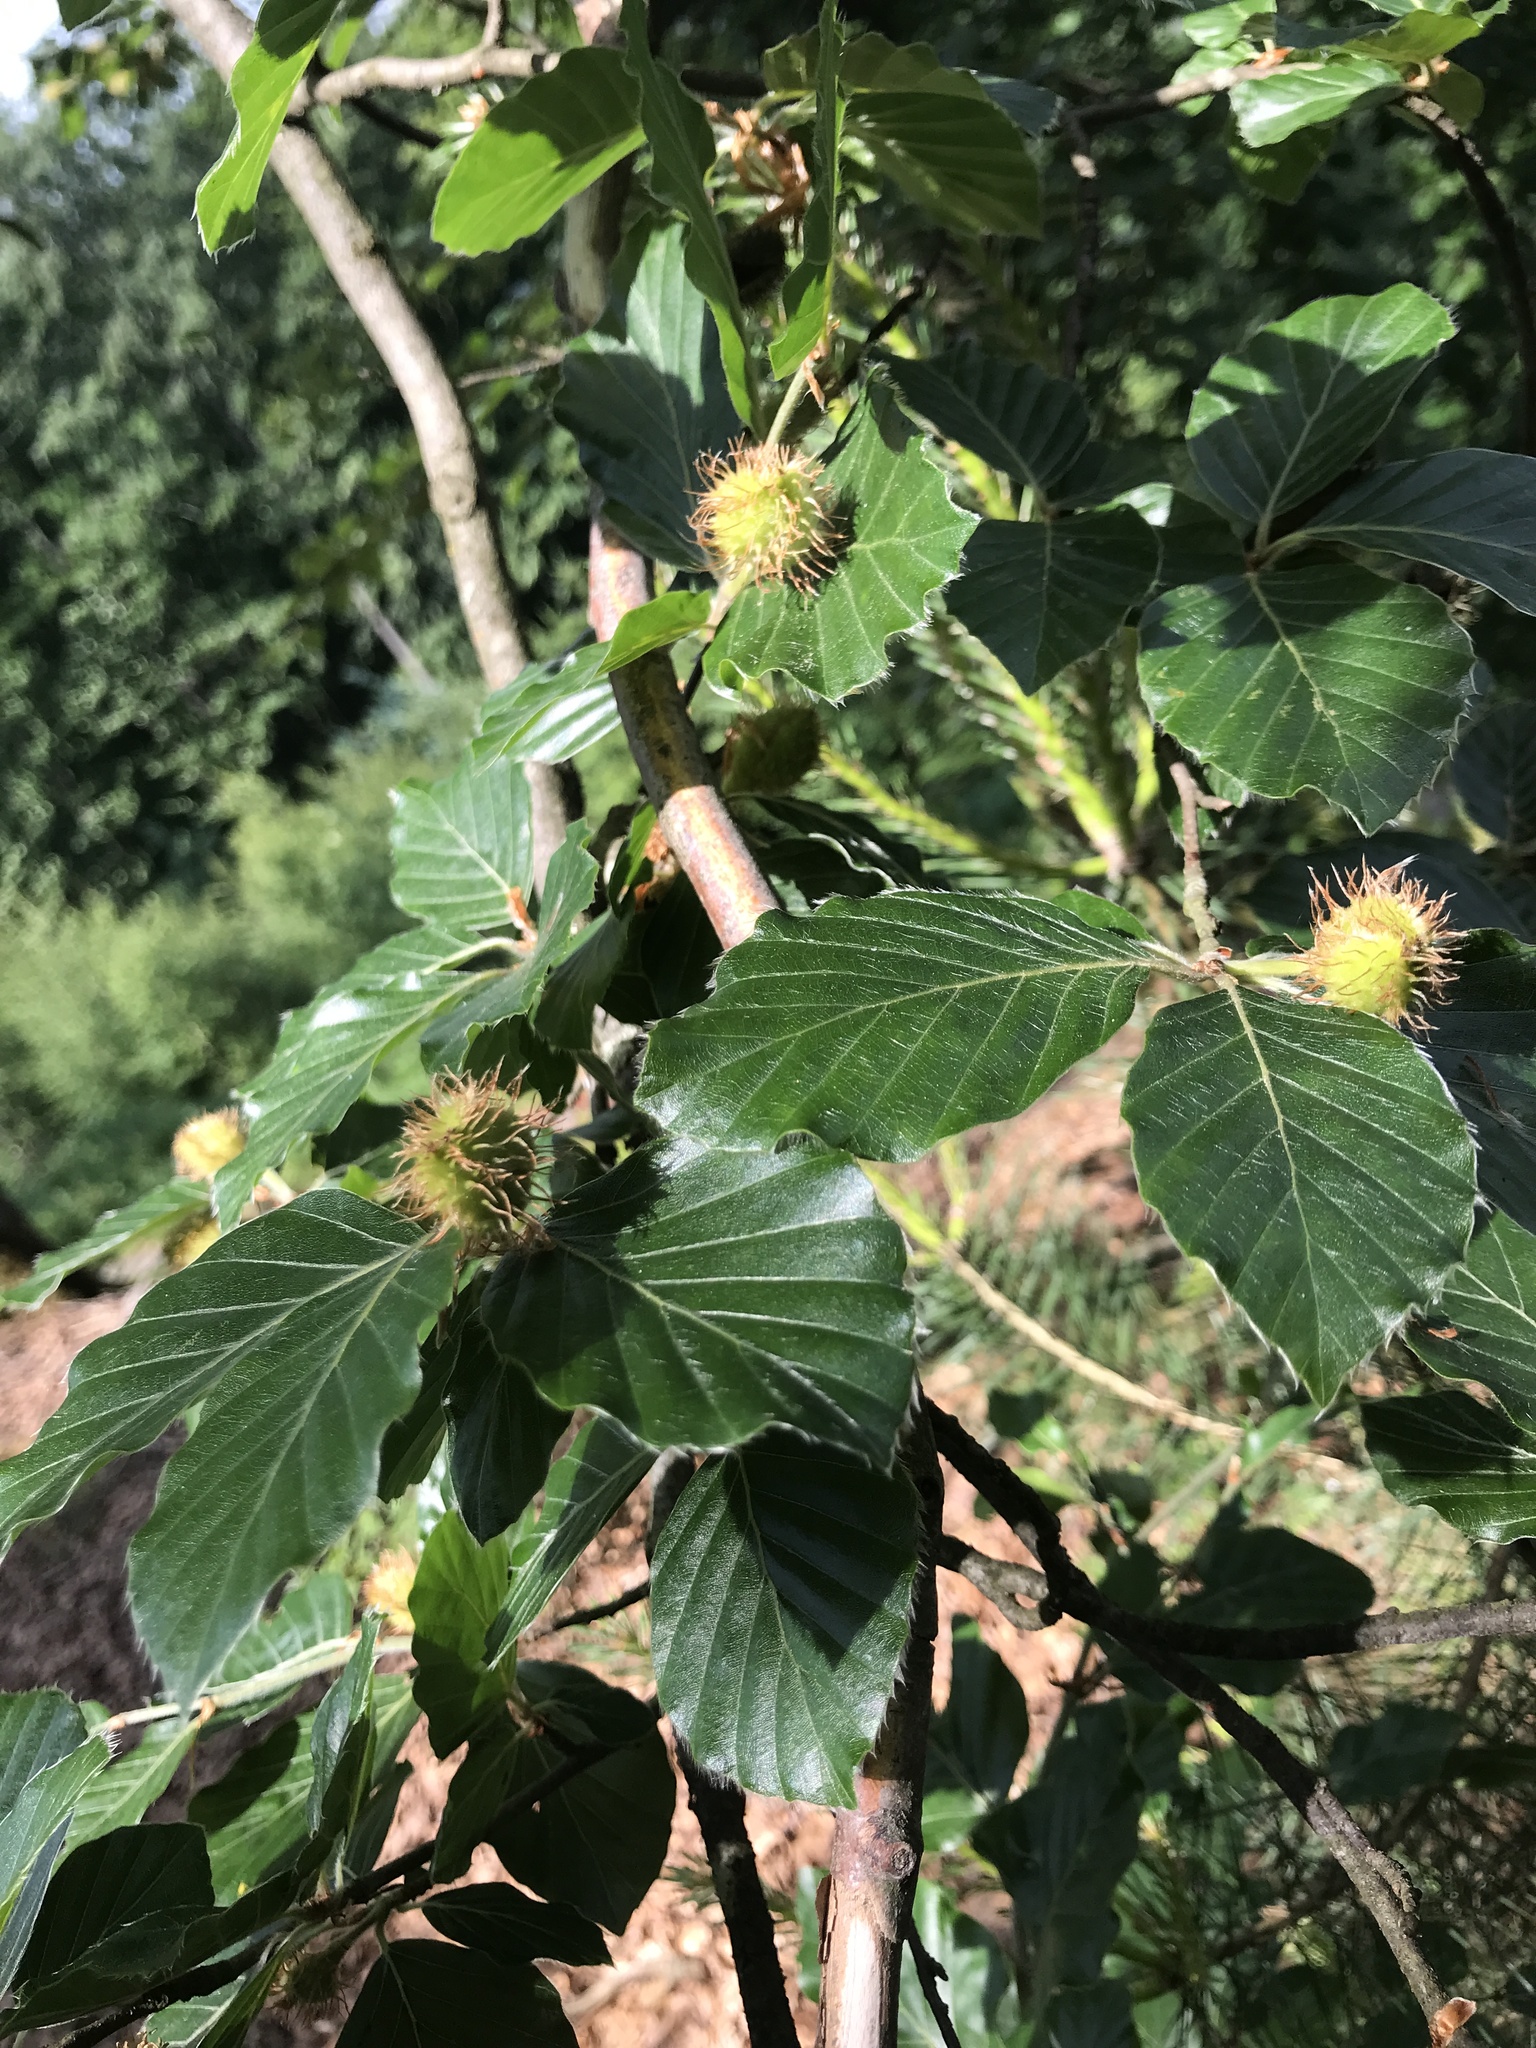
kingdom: Plantae
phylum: Tracheophyta
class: Magnoliopsida
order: Fagales
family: Fagaceae
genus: Fagus
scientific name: Fagus sylvatica
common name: Beech
